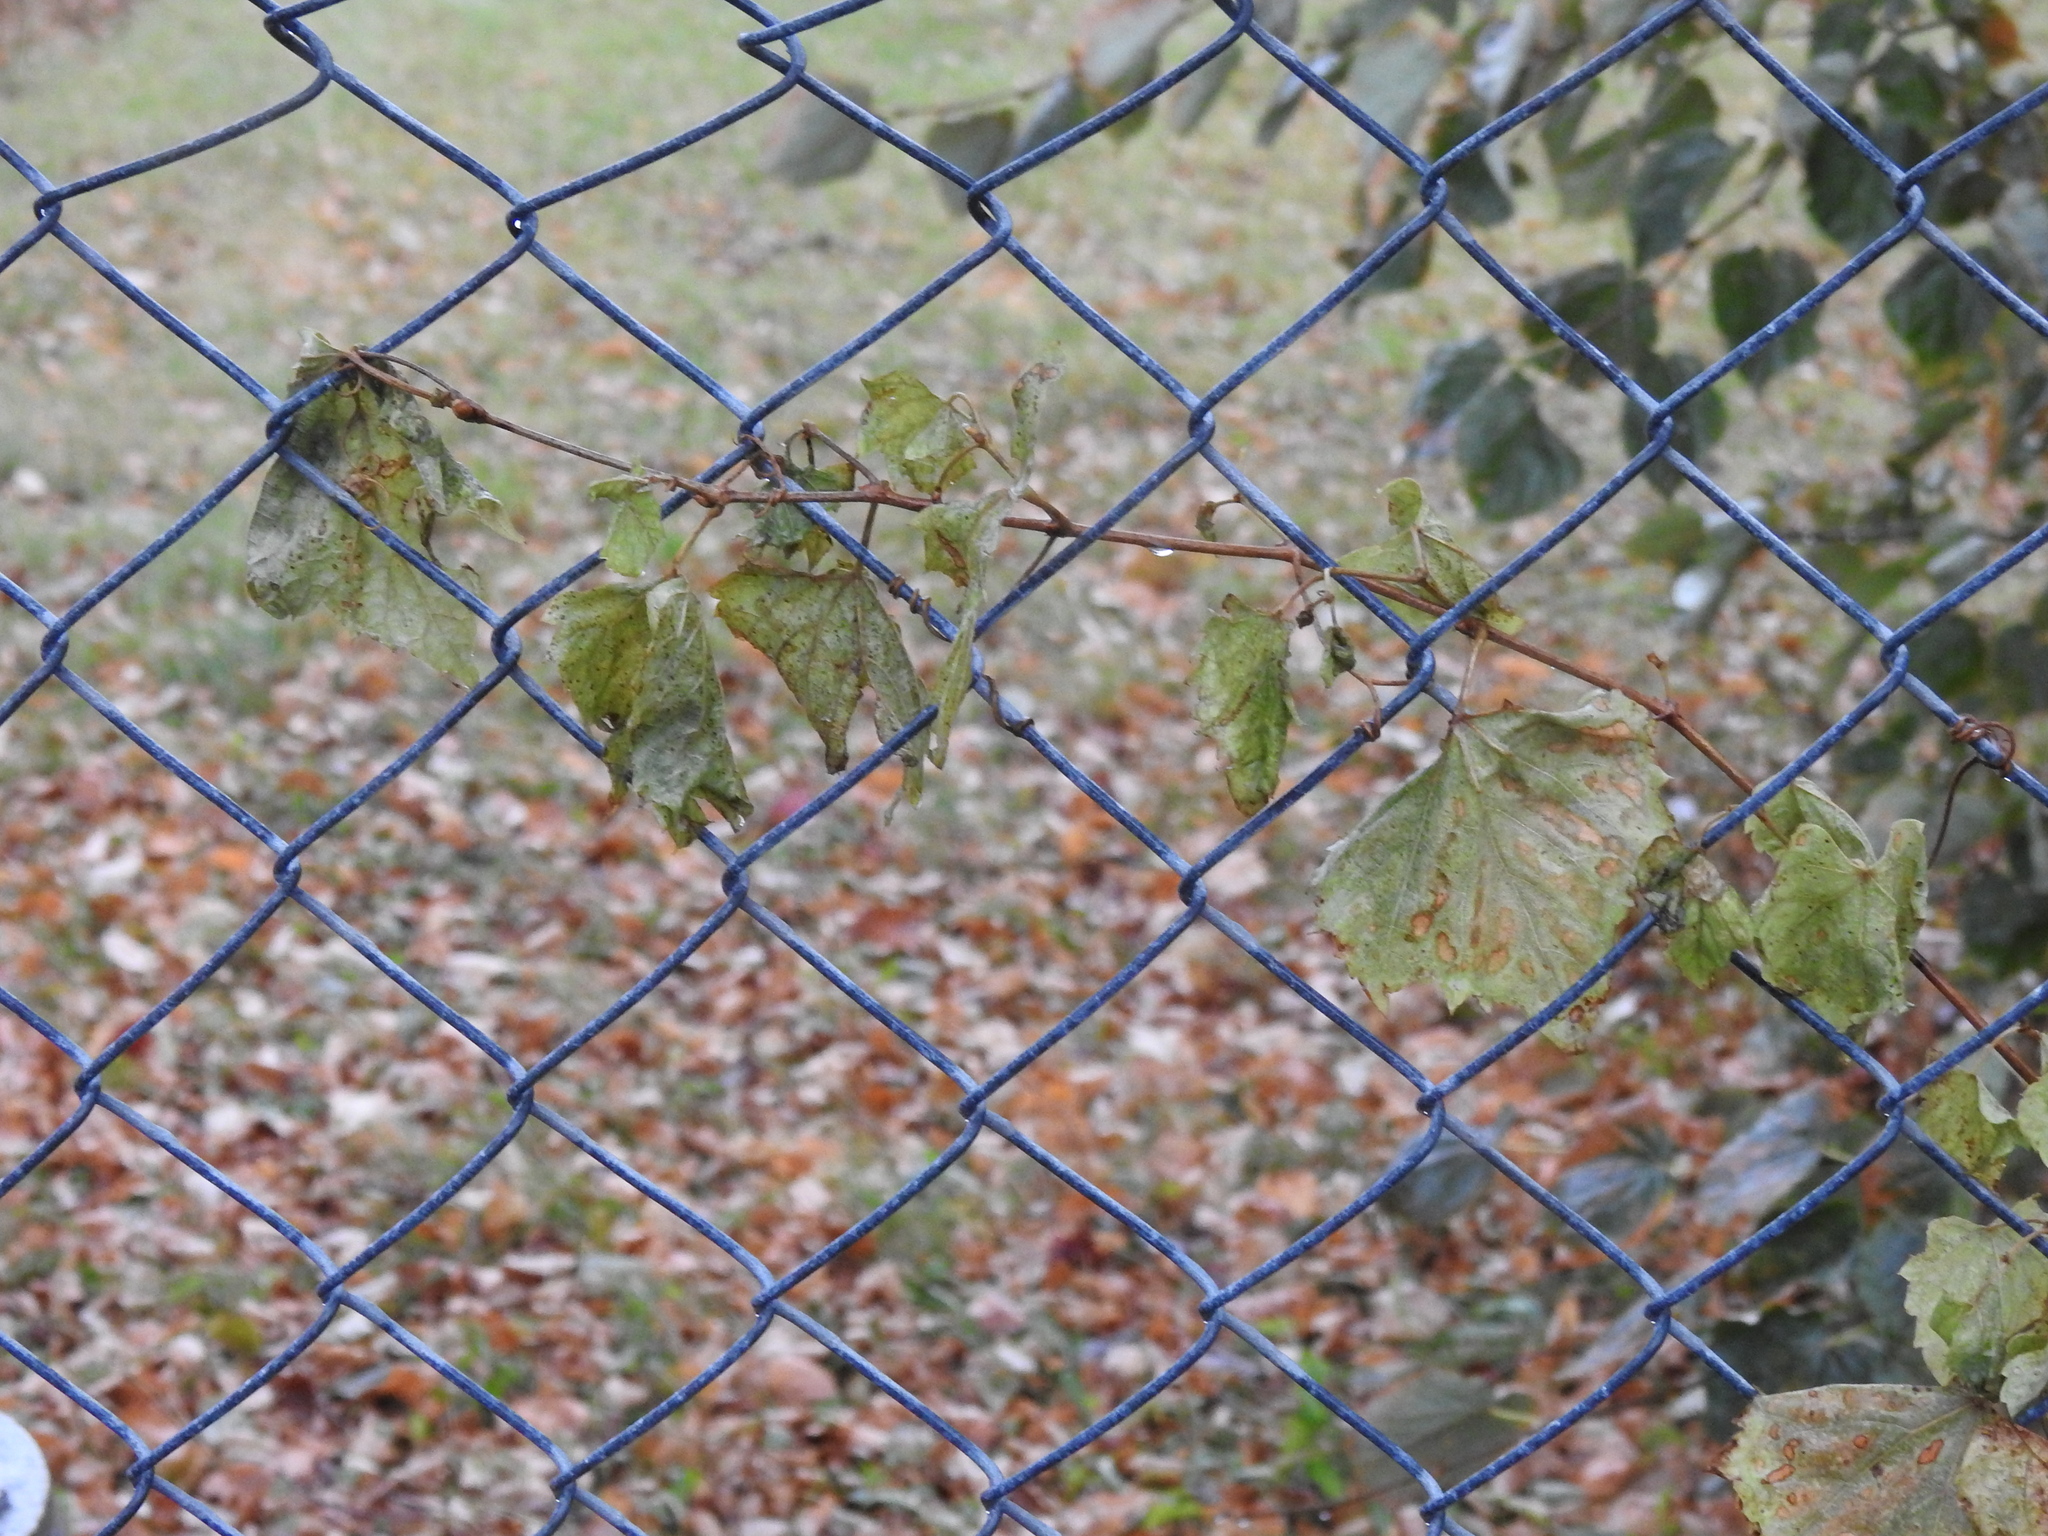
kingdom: Plantae
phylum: Tracheophyta
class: Magnoliopsida
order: Vitales
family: Vitaceae
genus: Ampelopsis
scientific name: Ampelopsis glandulosa
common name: Amur peppervine
